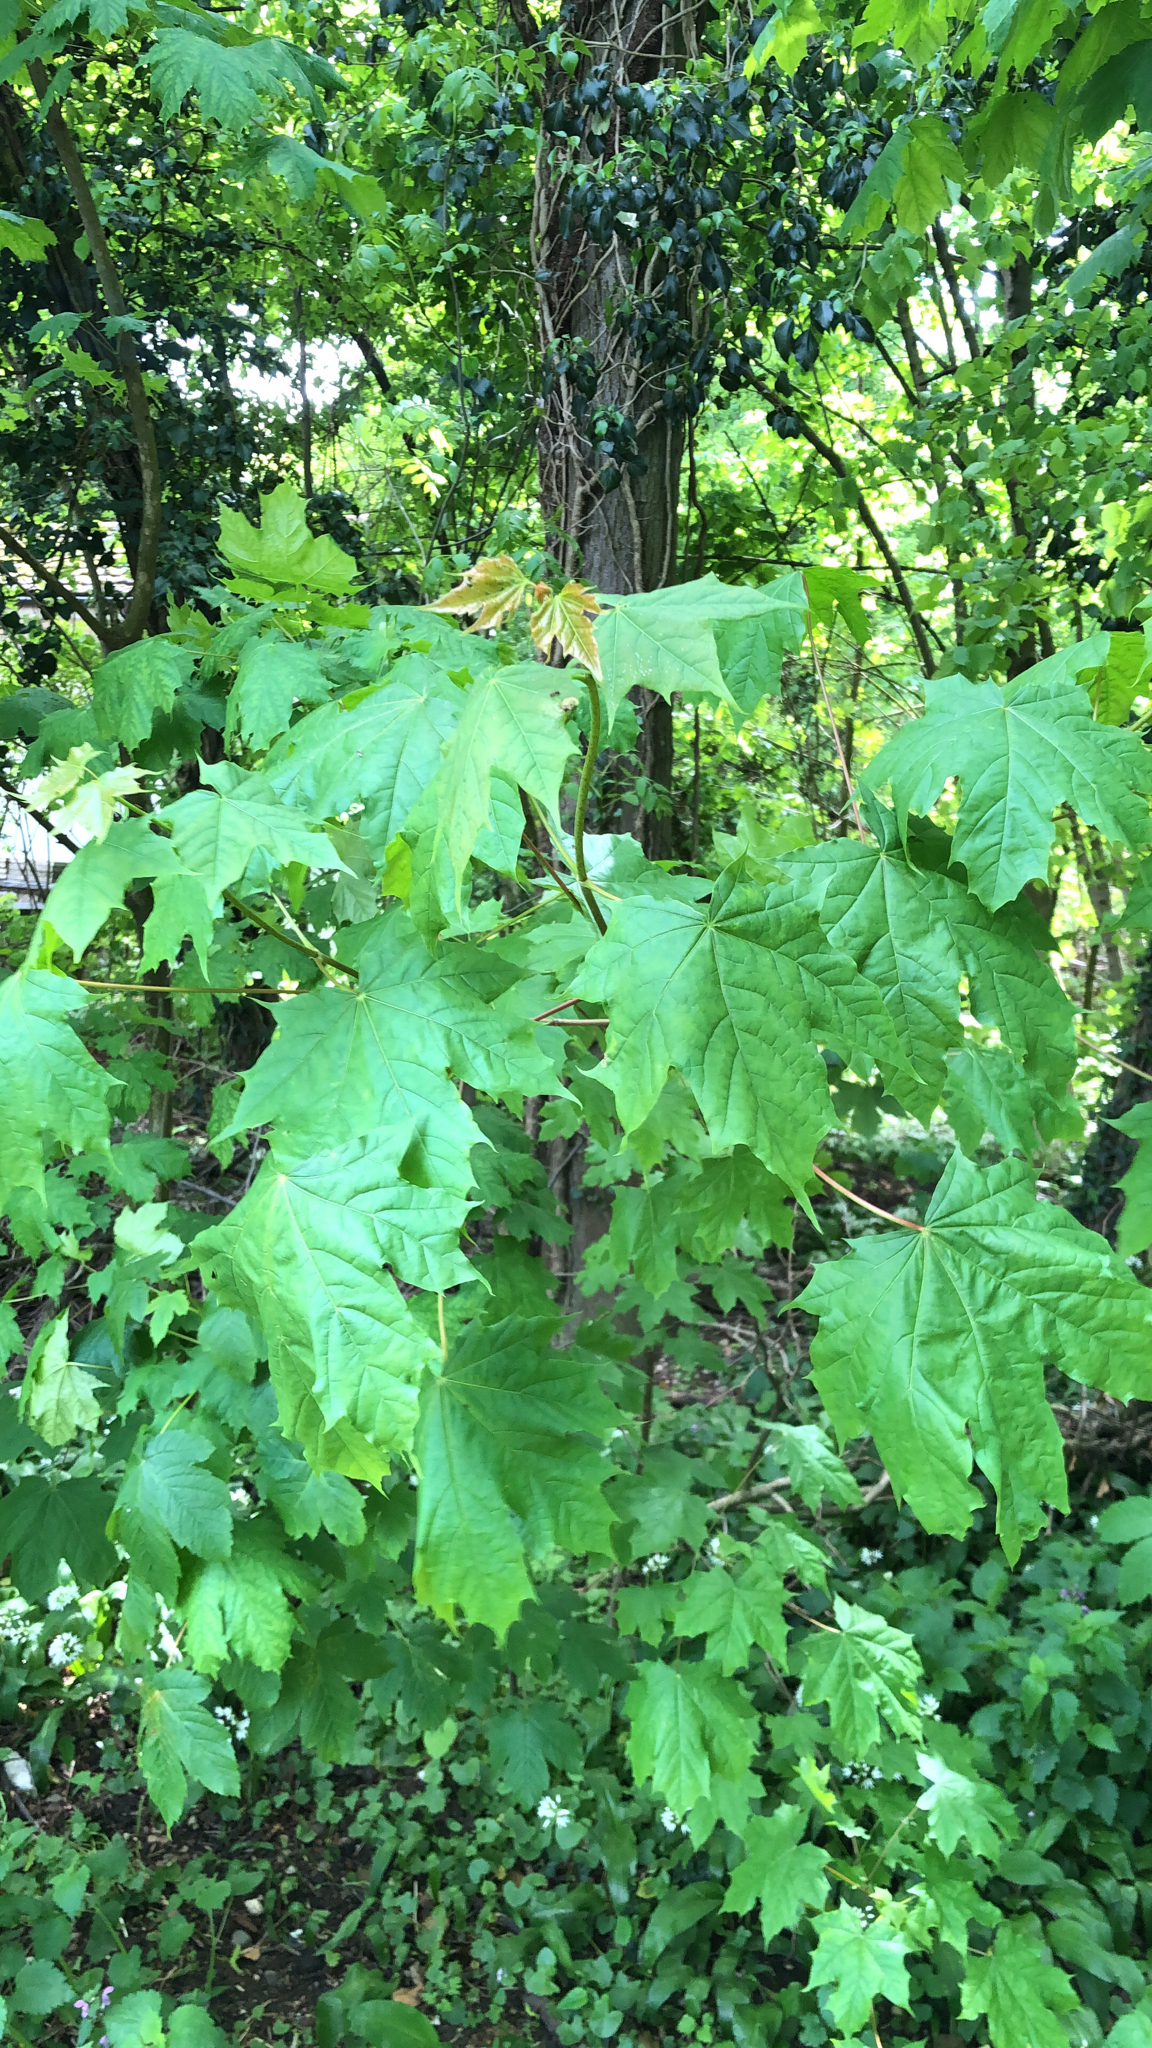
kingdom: Plantae
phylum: Tracheophyta
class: Magnoliopsida
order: Sapindales
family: Sapindaceae
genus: Acer
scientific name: Acer platanoides
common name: Norway maple
